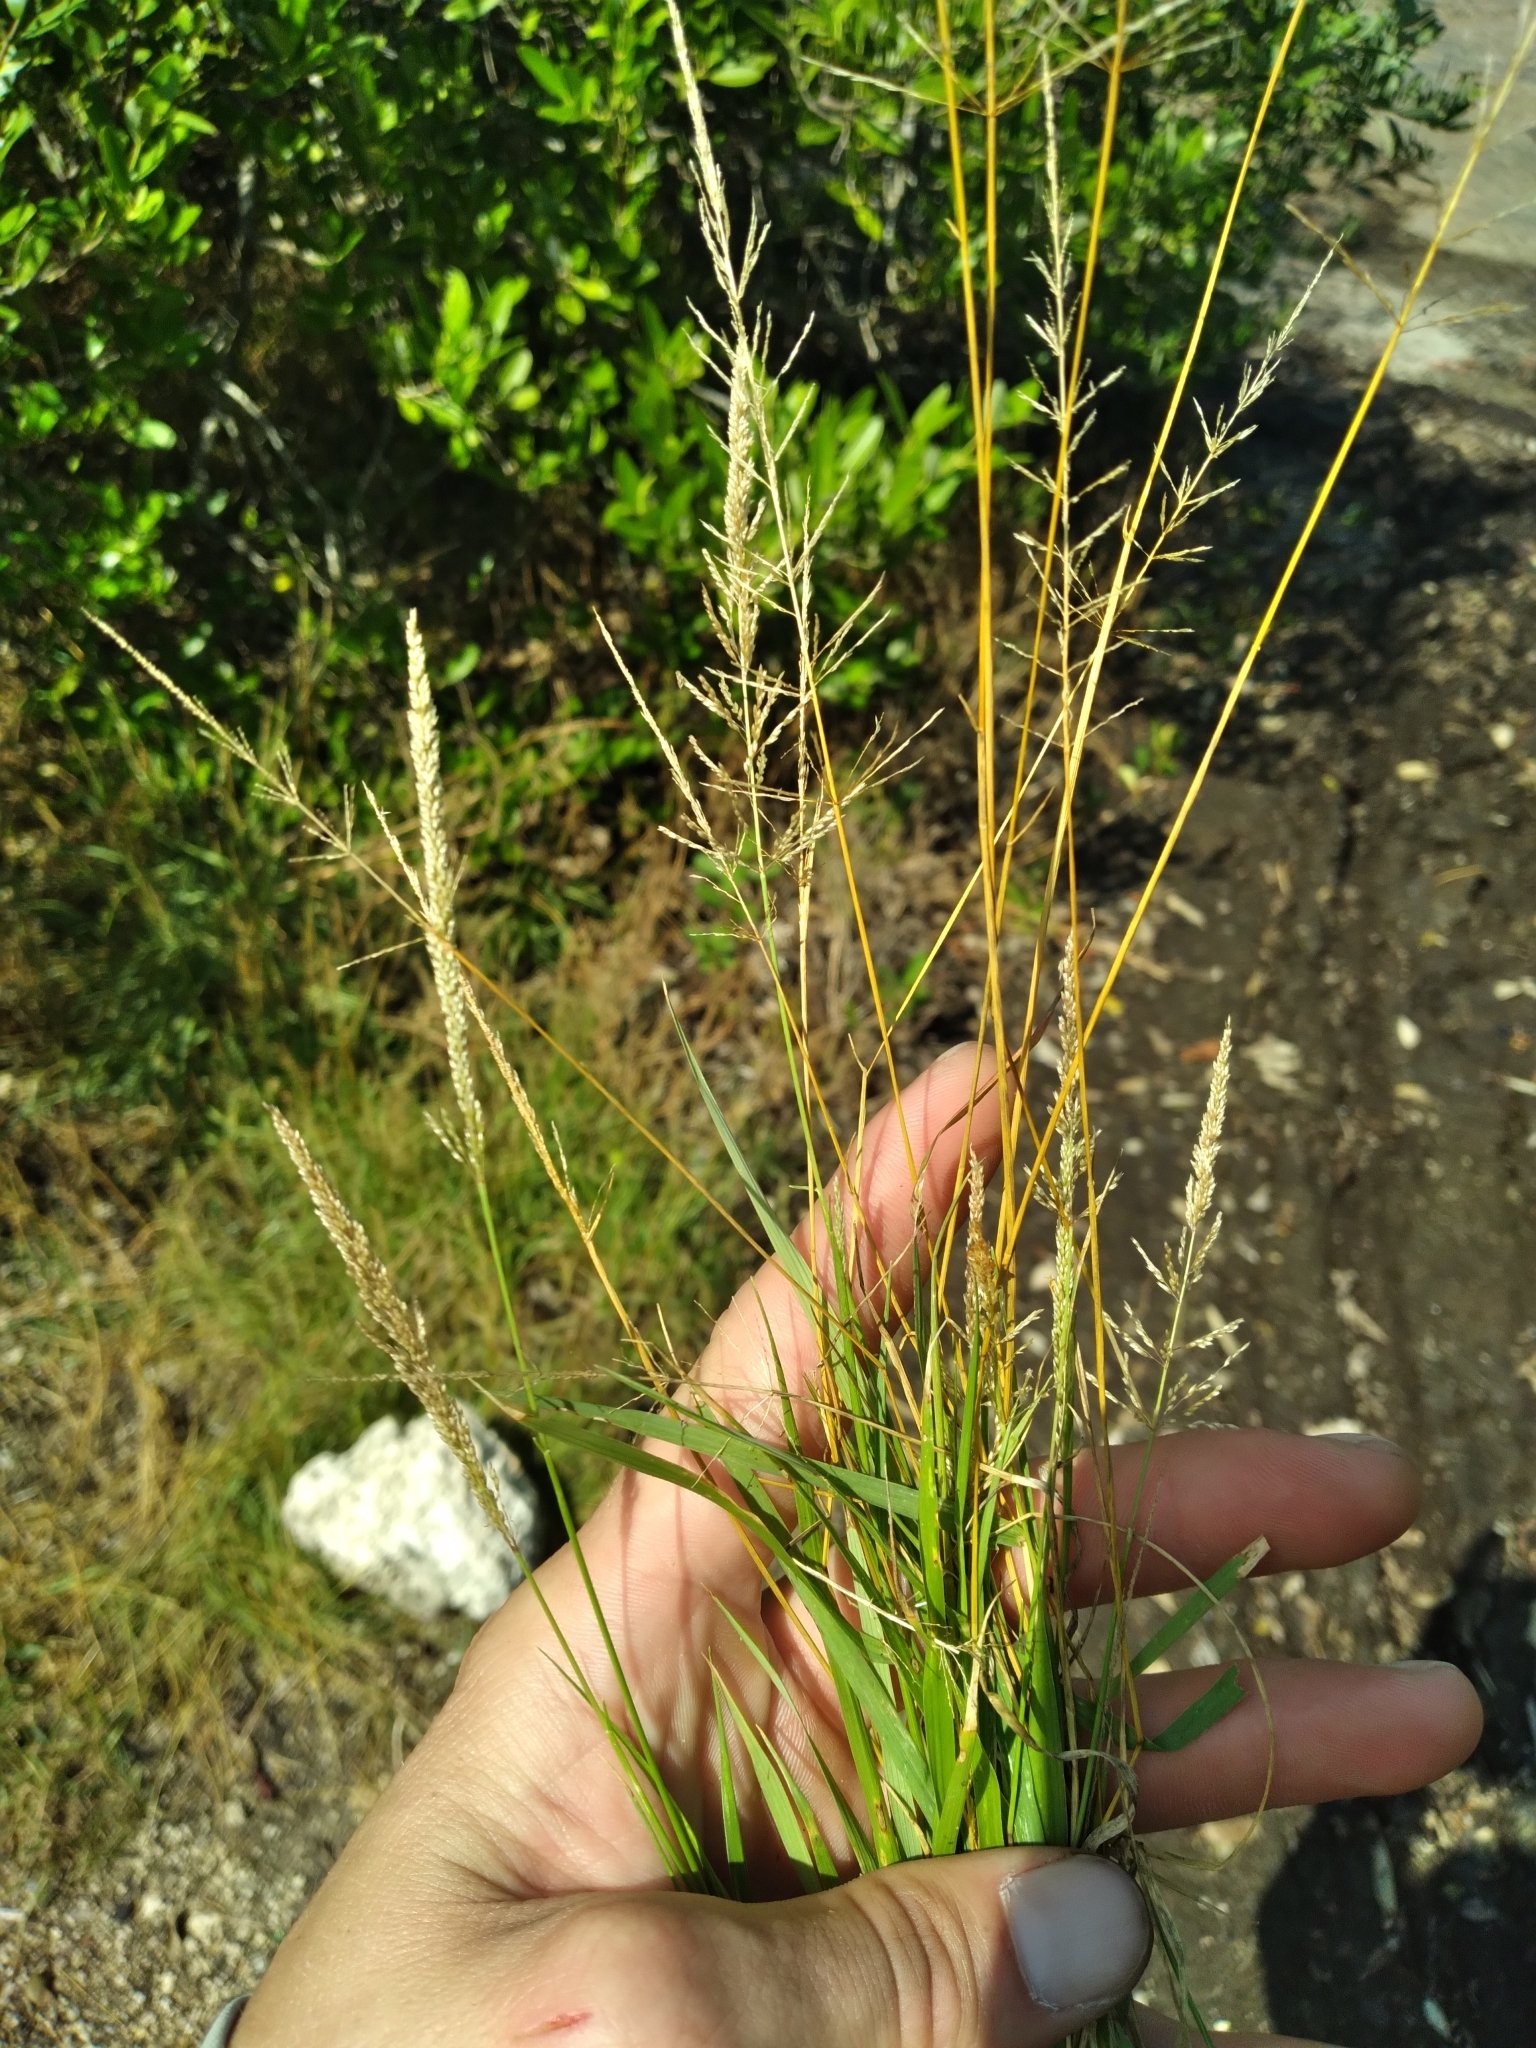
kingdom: Plantae
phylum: Tracheophyta
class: Liliopsida
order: Poales
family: Poaceae
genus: Sporobolus
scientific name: Sporobolus pyramidatus
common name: Whorled dropseed
